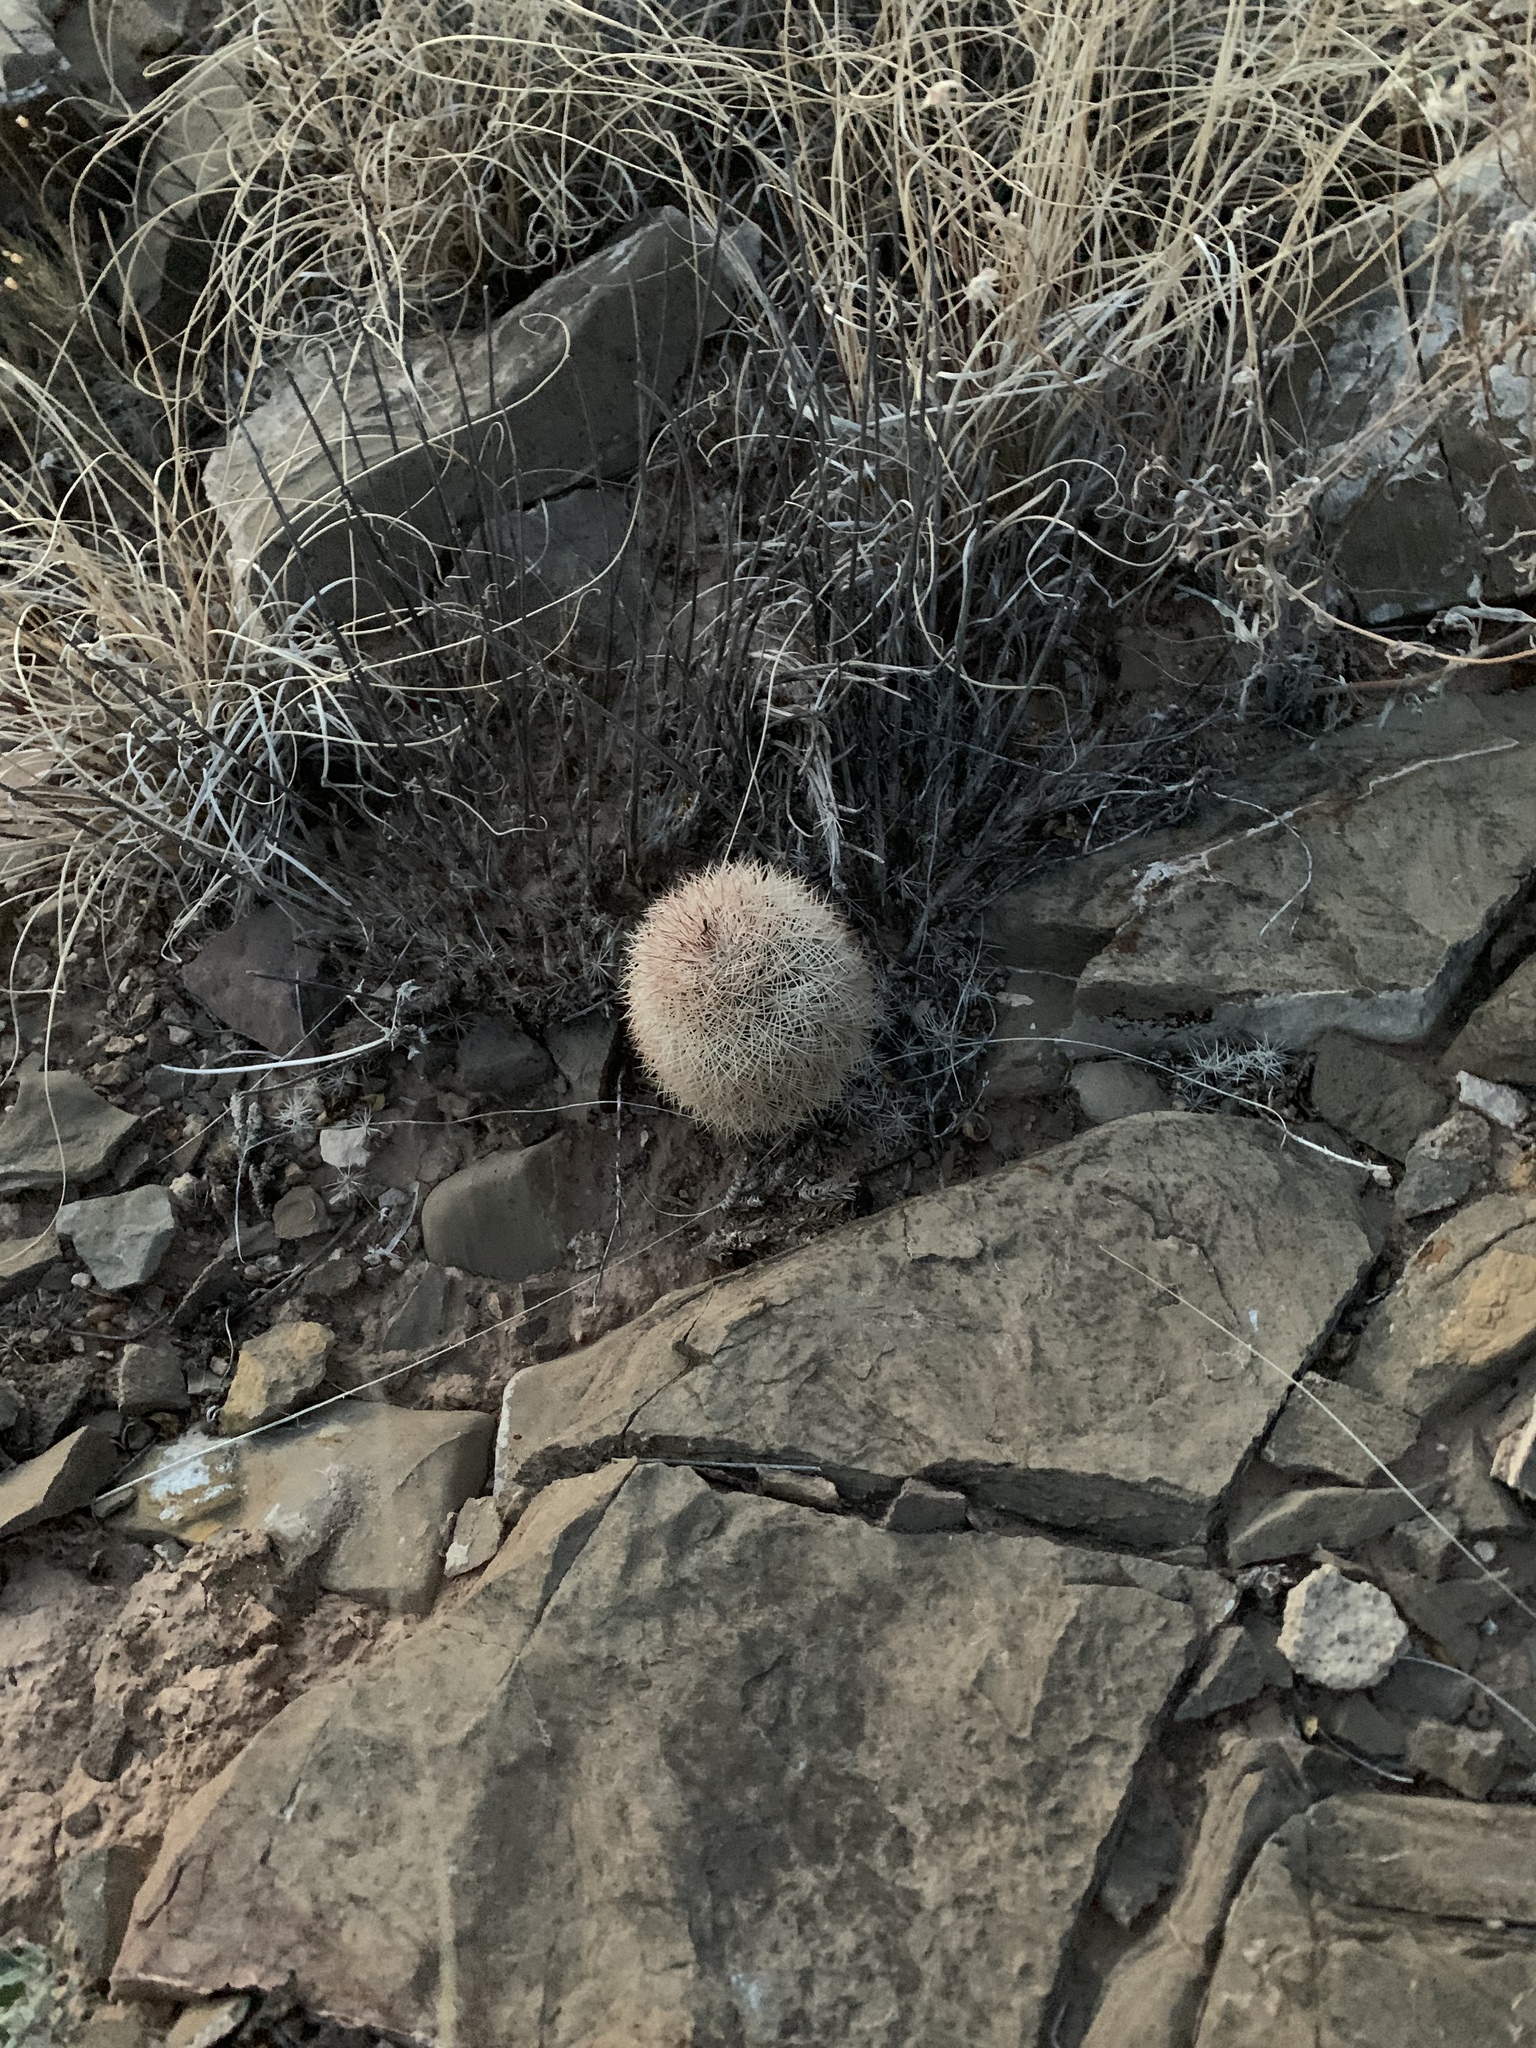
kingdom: Plantae
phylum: Tracheophyta
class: Magnoliopsida
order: Caryophyllales
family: Cactaceae
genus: Echinocereus
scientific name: Echinocereus dasyacanthus
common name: Spiny hedgehog cactus
